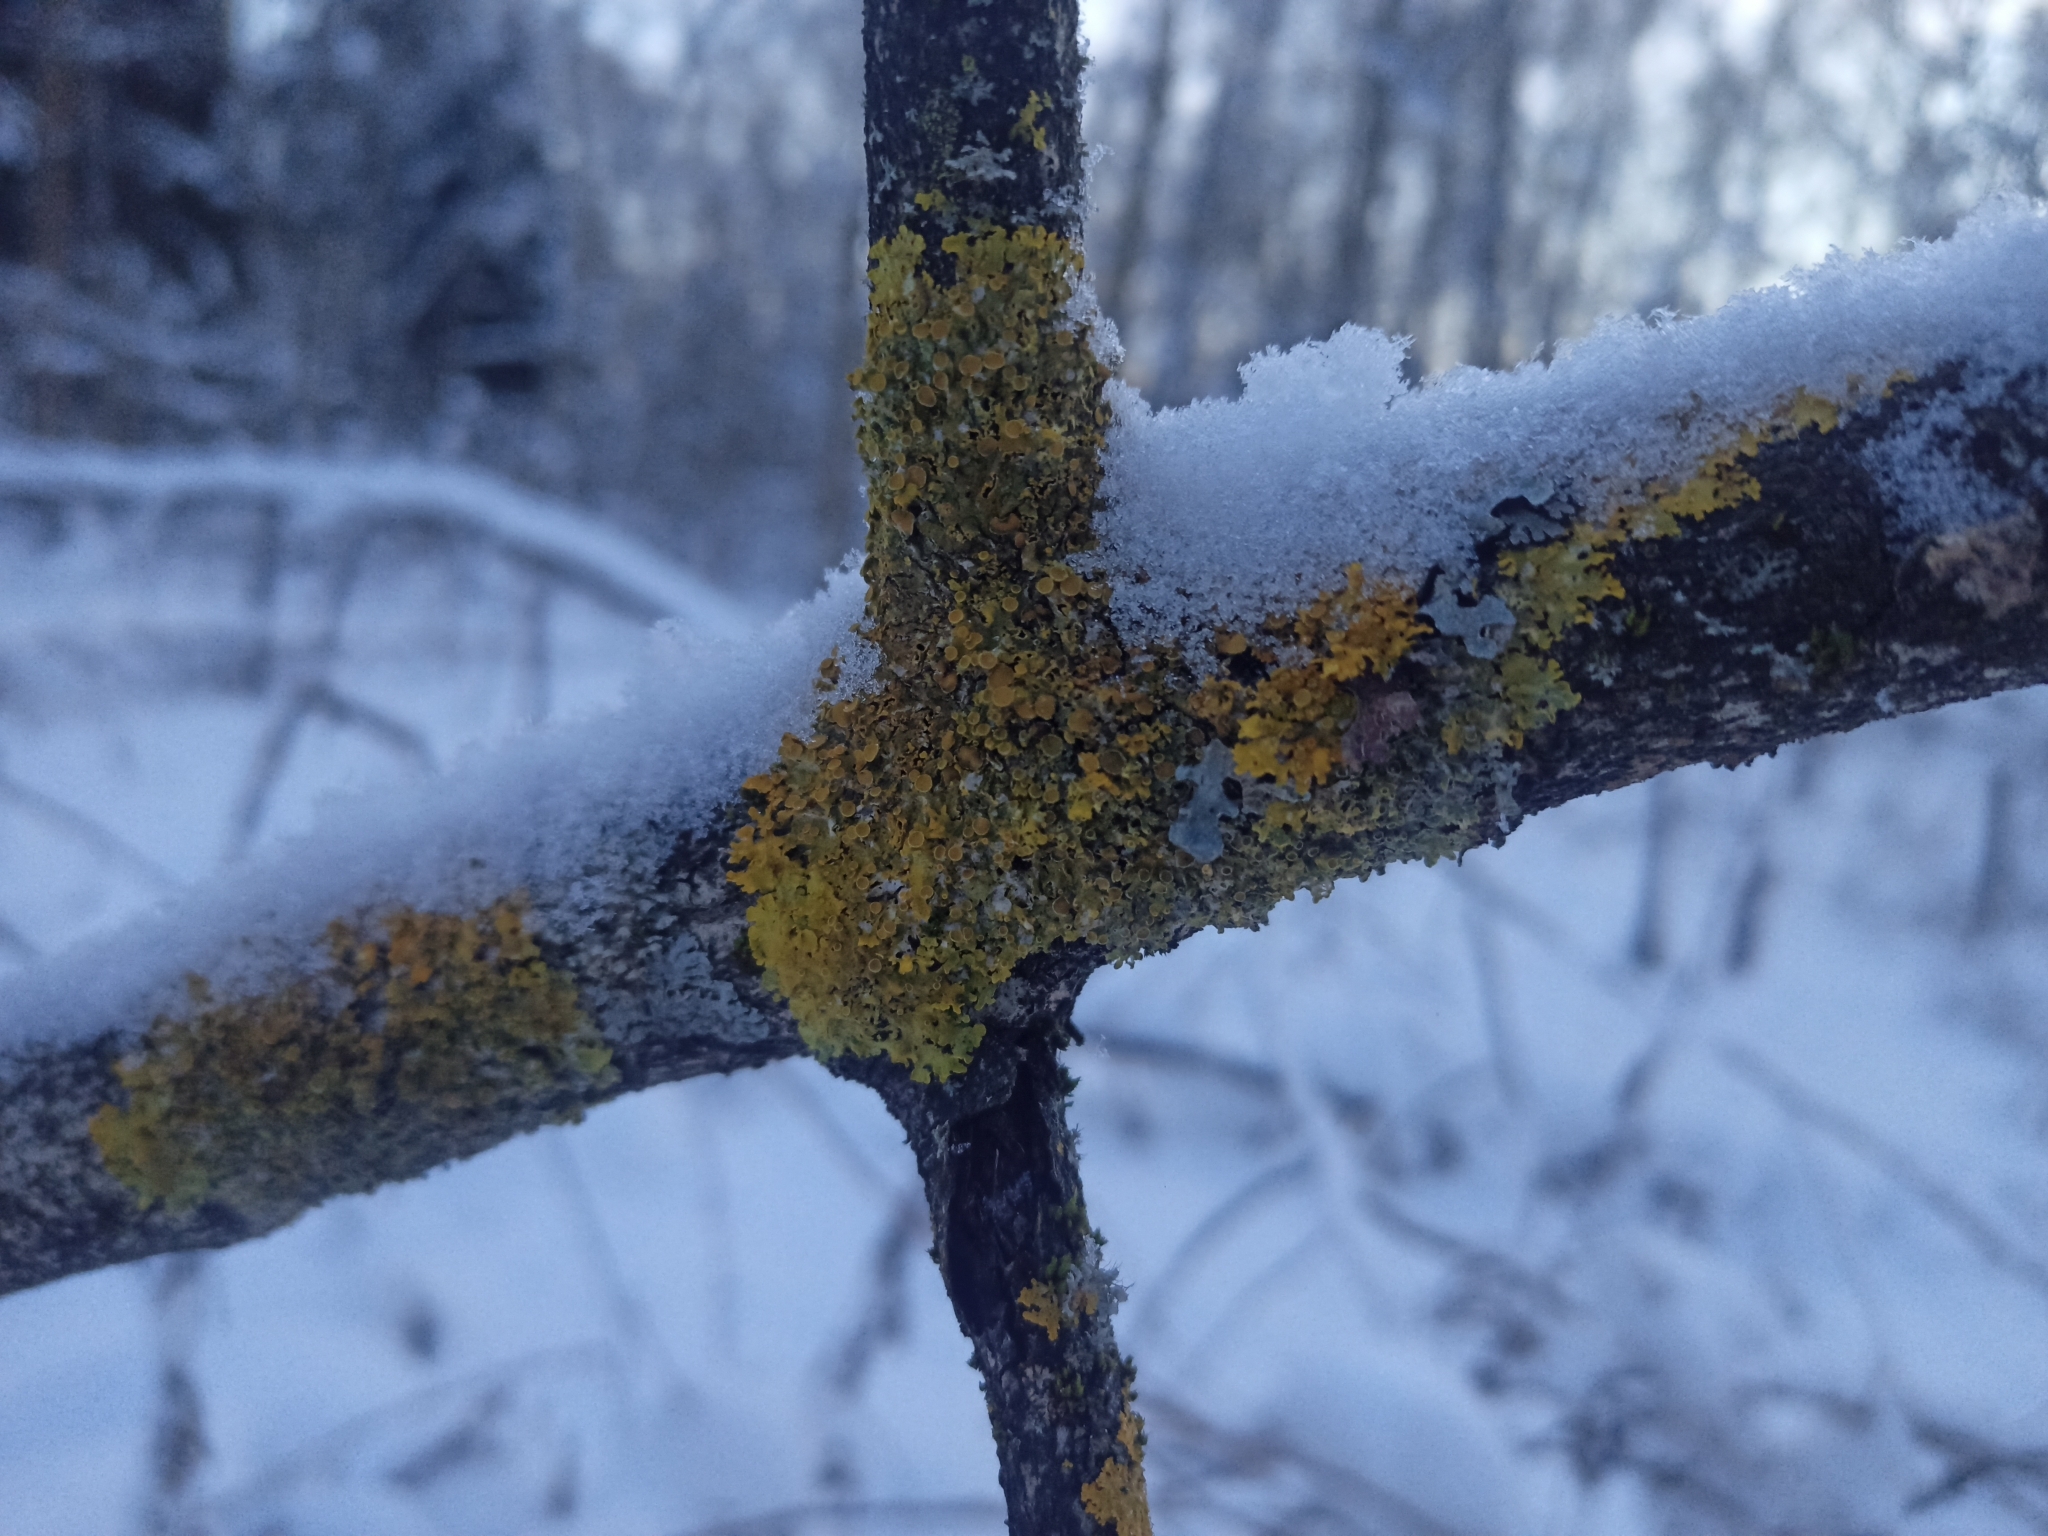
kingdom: Fungi
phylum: Ascomycota
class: Lecanoromycetes
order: Teloschistales
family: Teloschistaceae
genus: Xanthoria
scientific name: Xanthoria parietina
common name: Common orange lichen
